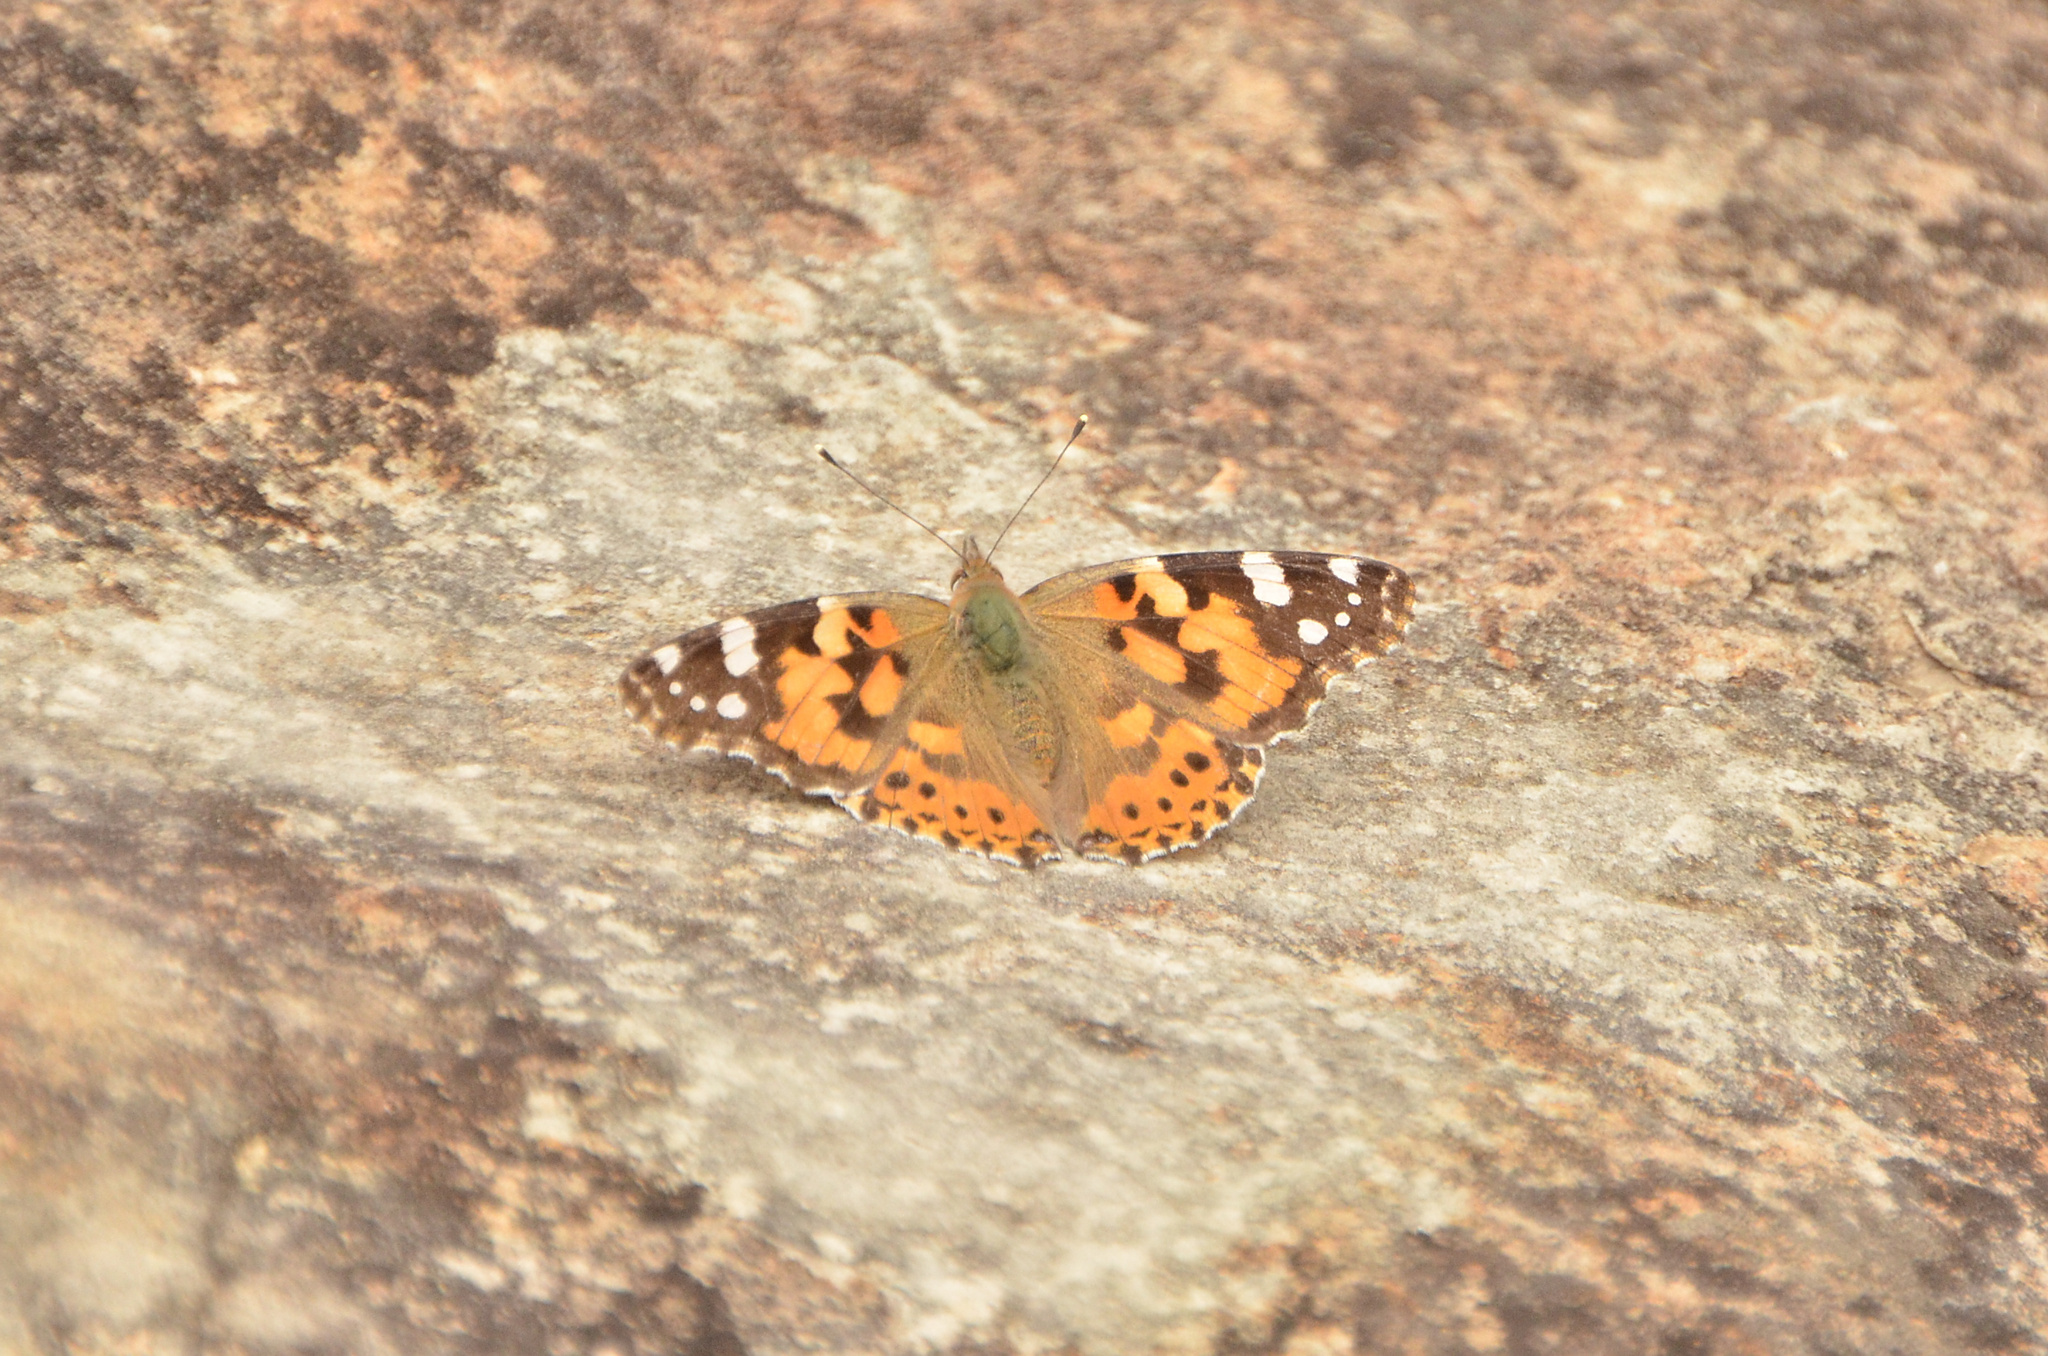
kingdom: Animalia
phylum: Arthropoda
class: Insecta
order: Lepidoptera
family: Nymphalidae
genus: Vanessa
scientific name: Vanessa cardui
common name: Painted lady
